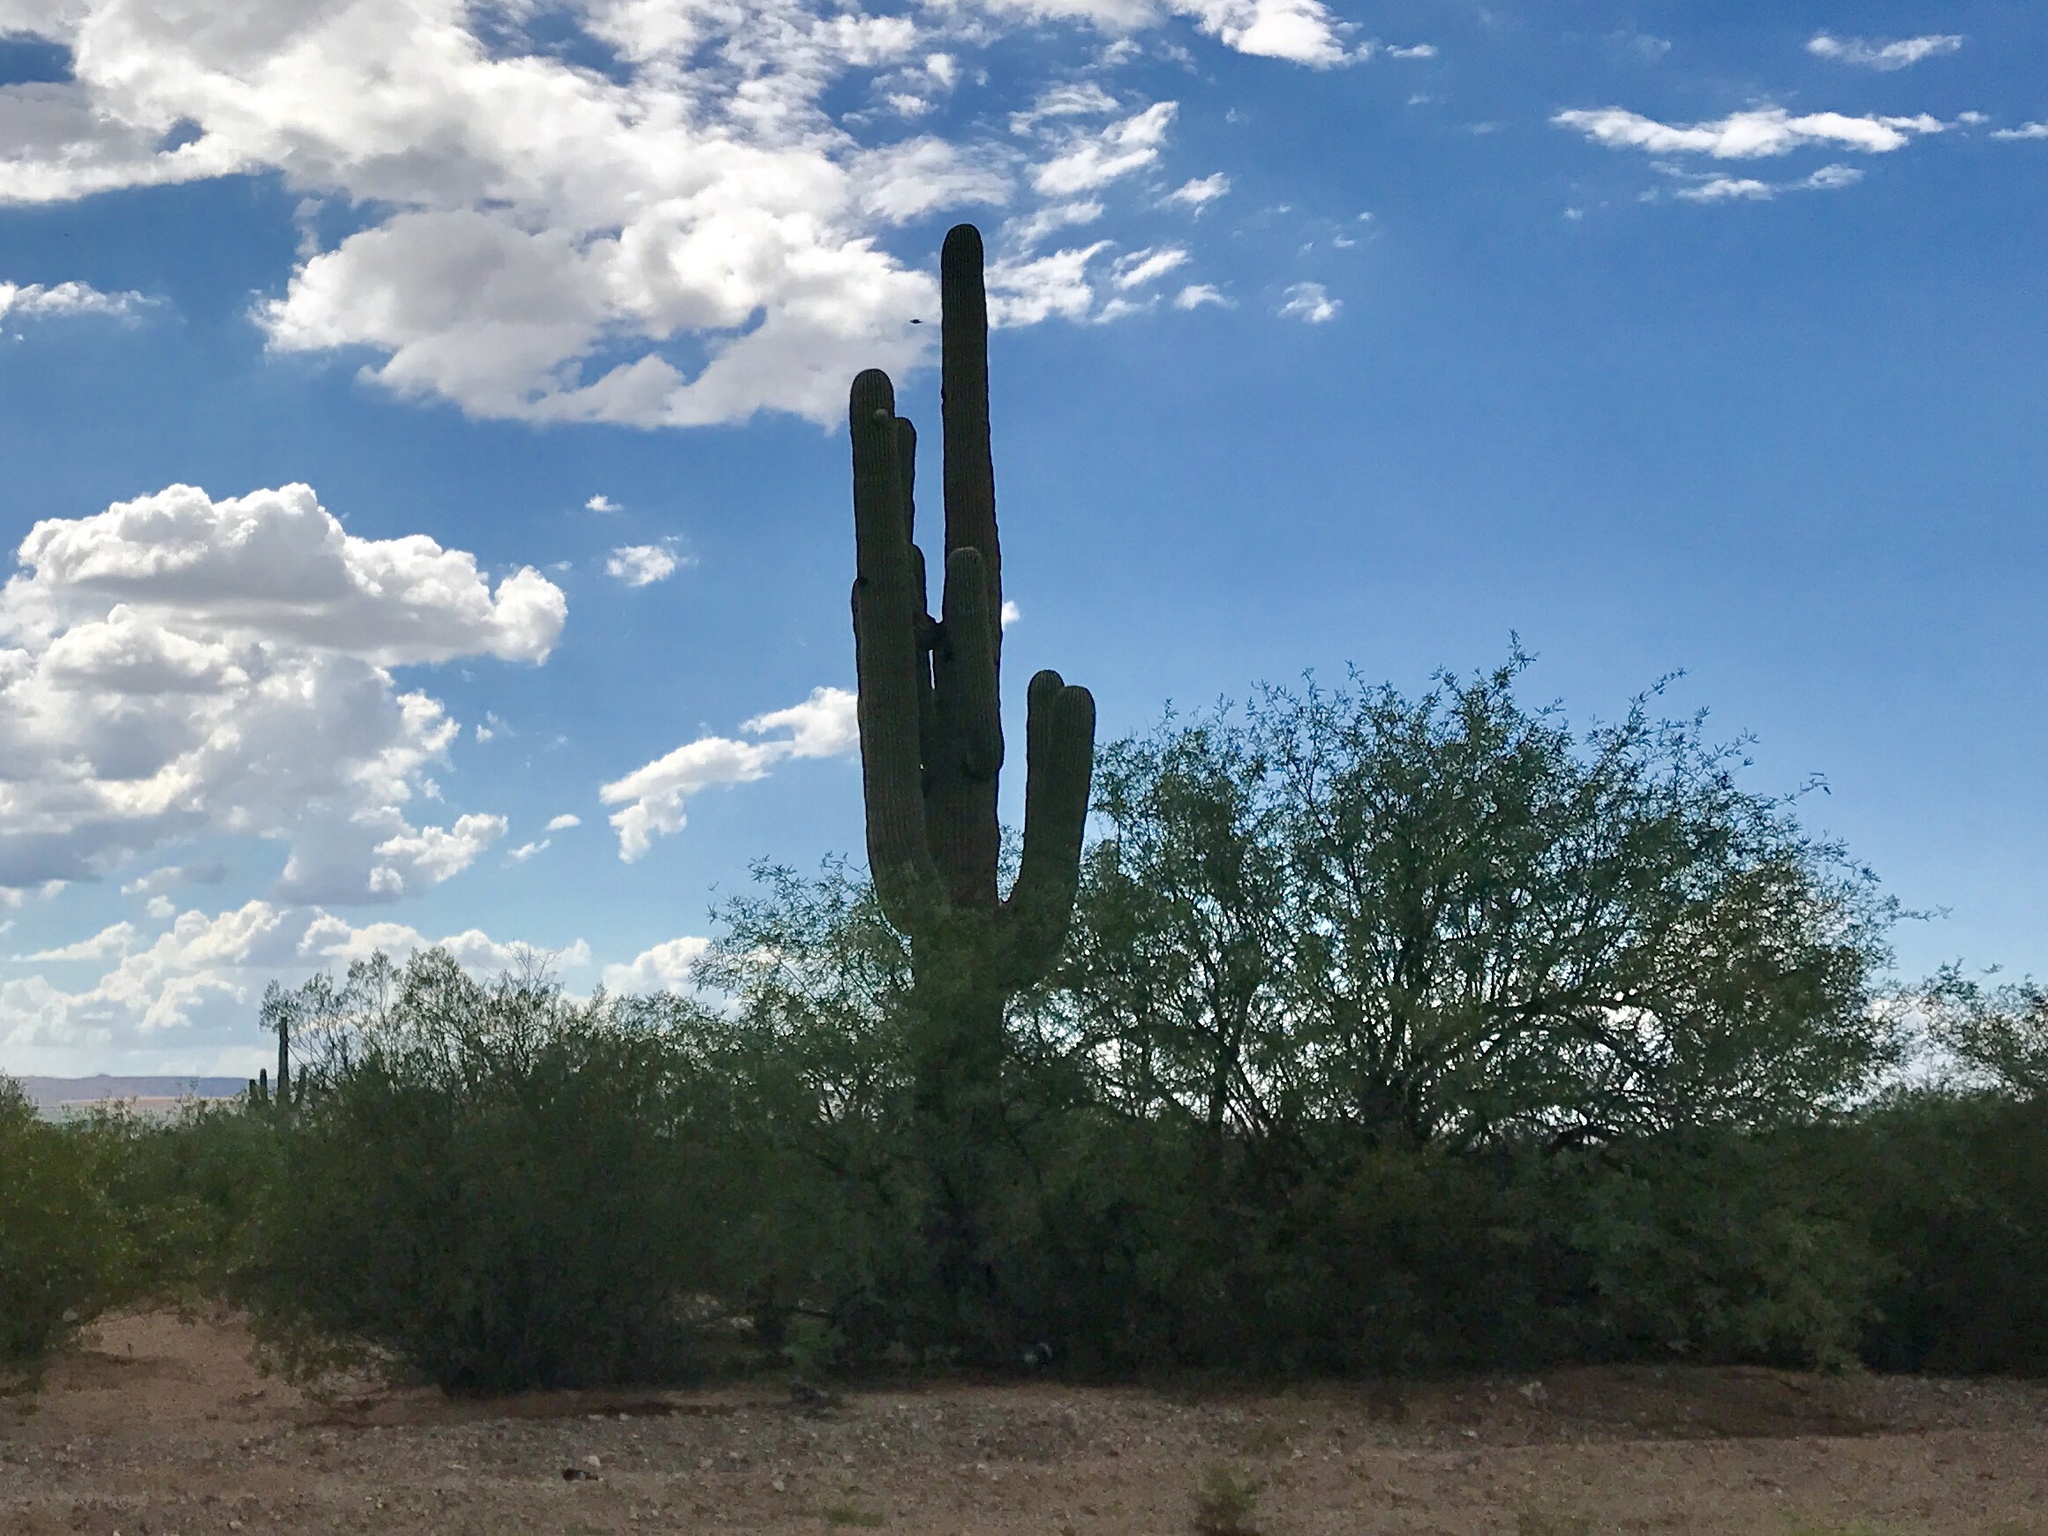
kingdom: Plantae
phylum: Tracheophyta
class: Magnoliopsida
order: Caryophyllales
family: Cactaceae
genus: Carnegiea
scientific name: Carnegiea gigantea
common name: Saguaro
